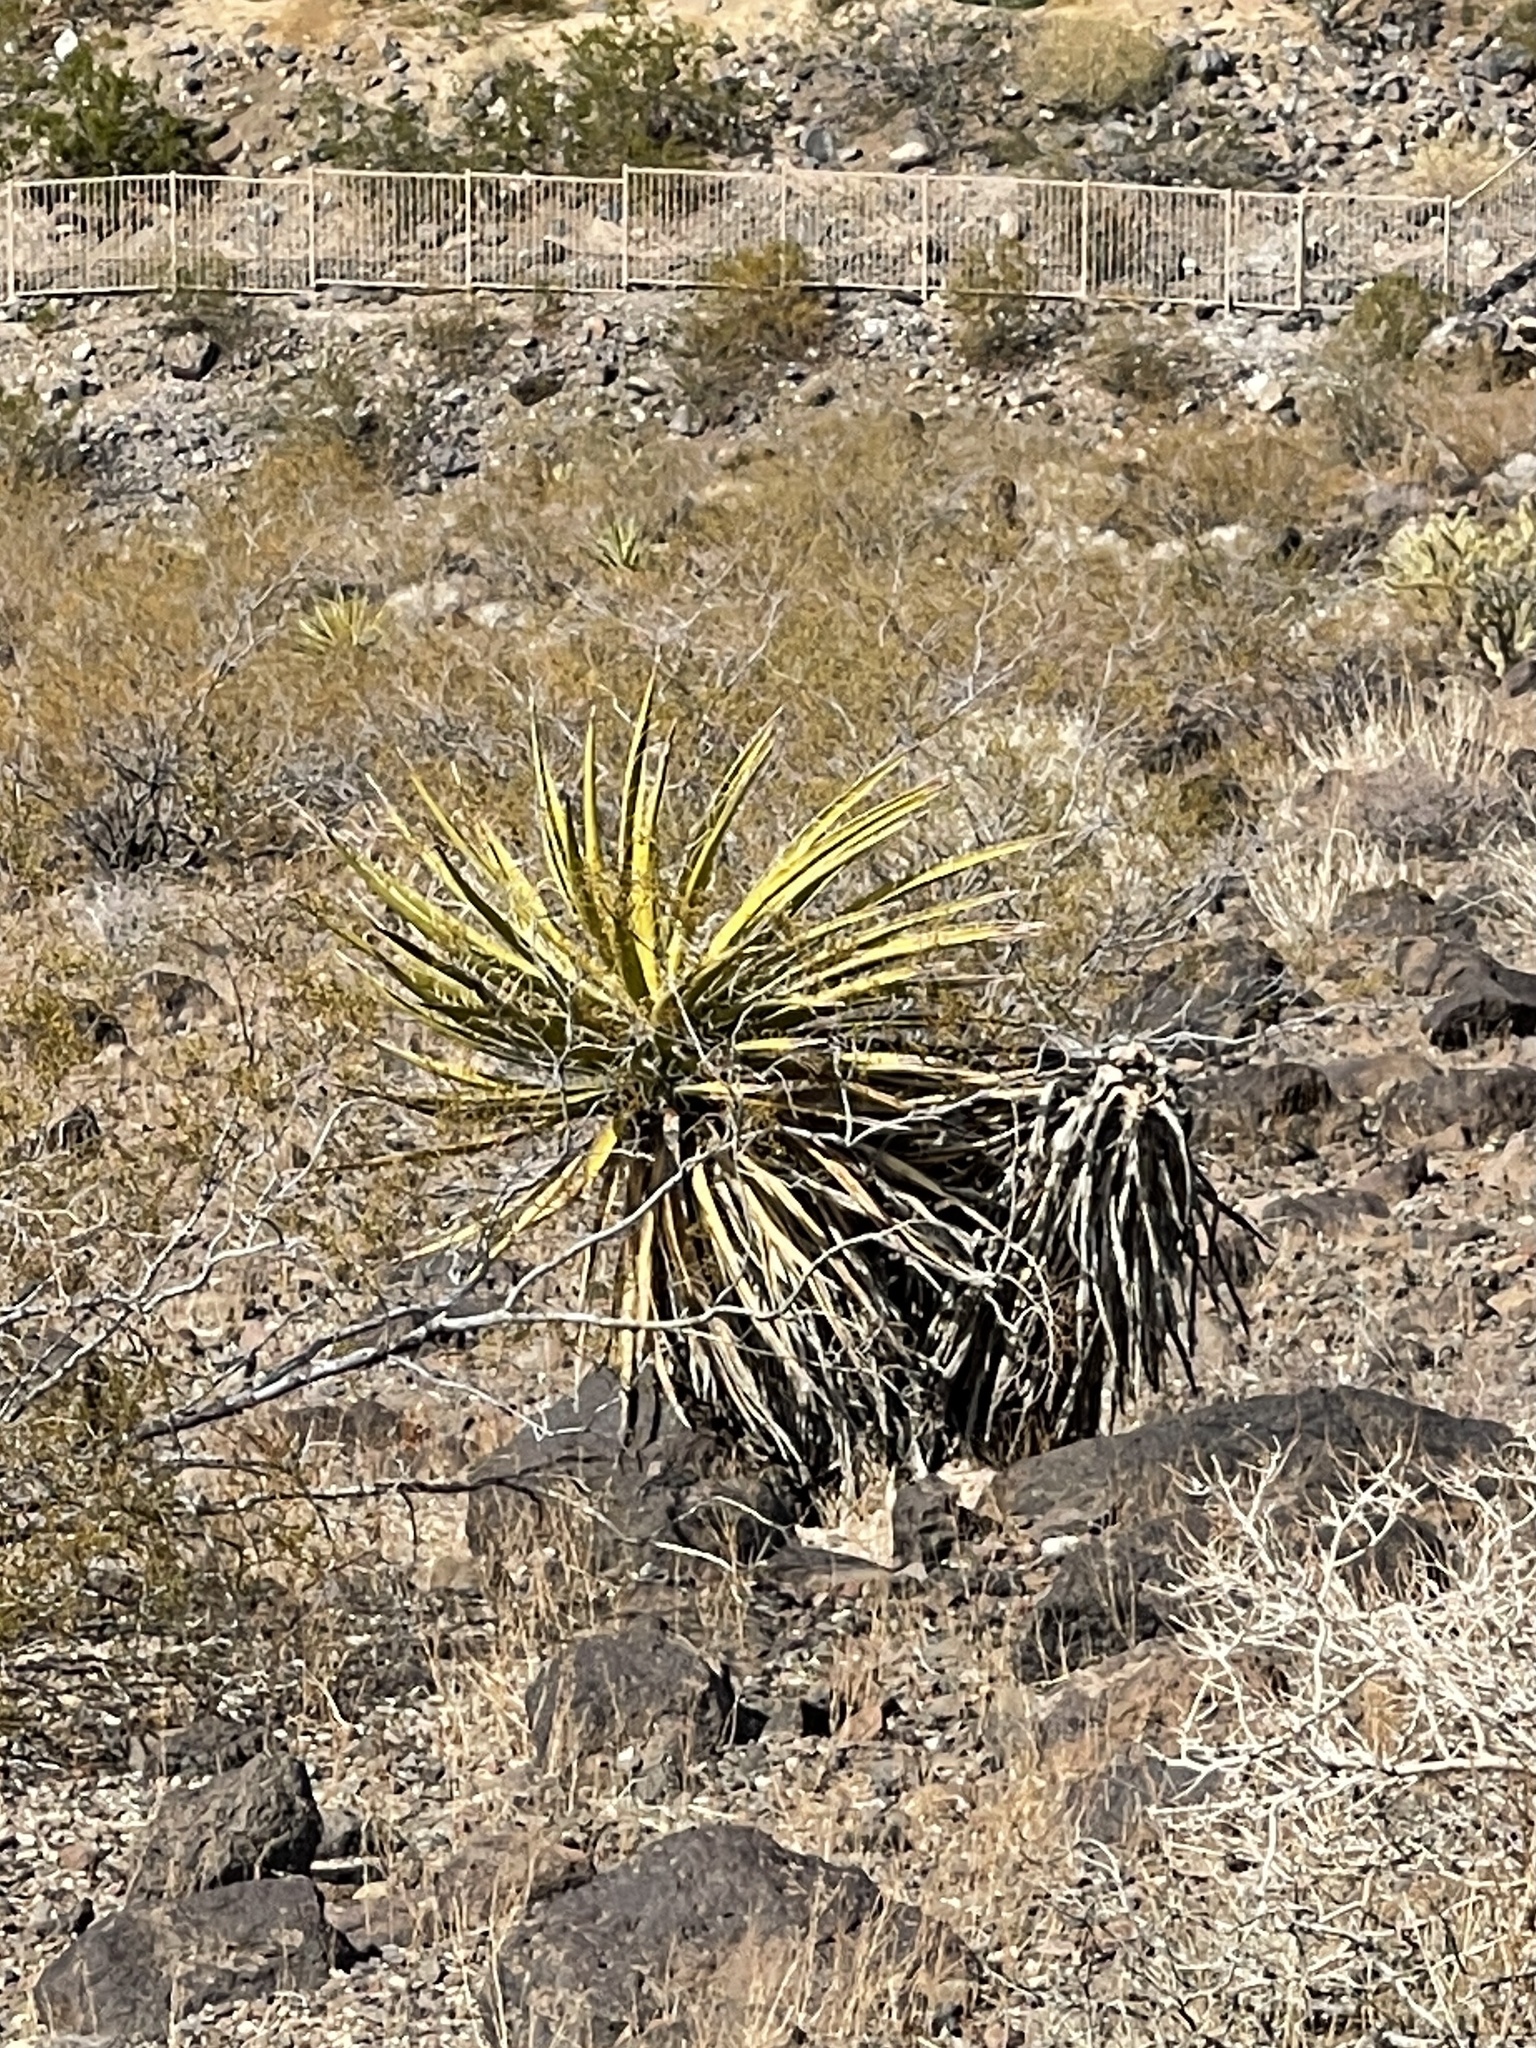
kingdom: Plantae
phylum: Tracheophyta
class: Liliopsida
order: Asparagales
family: Asparagaceae
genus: Yucca
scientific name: Yucca schidigera
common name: Mojave yucca
